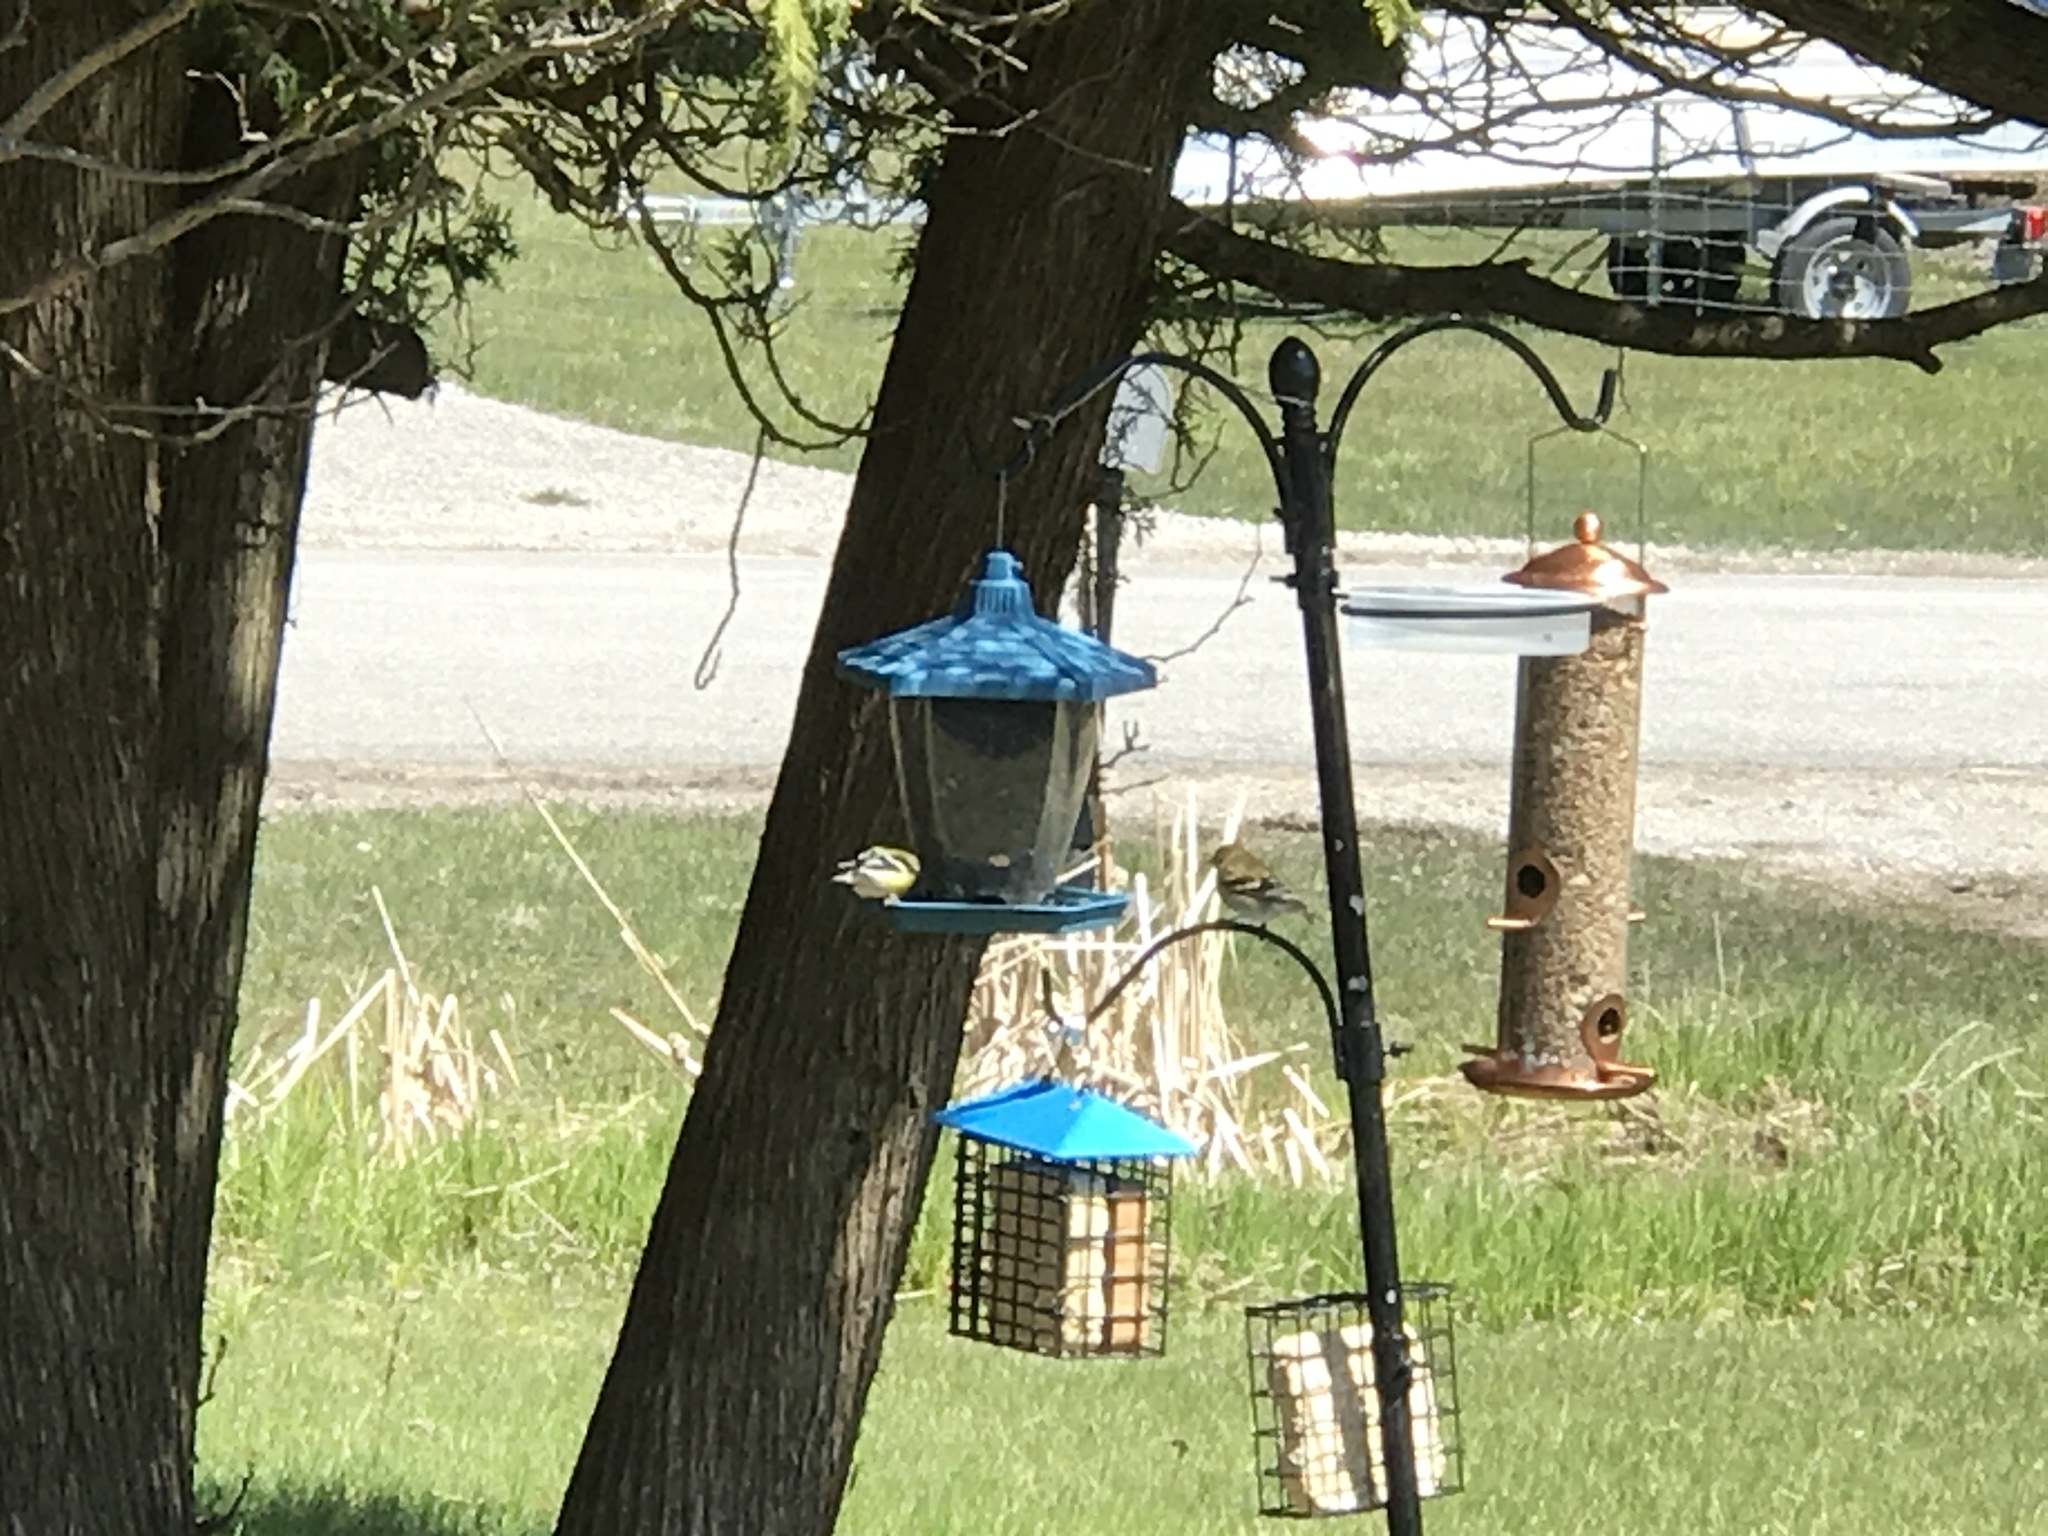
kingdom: Animalia
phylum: Chordata
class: Aves
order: Passeriformes
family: Fringillidae
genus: Spinus
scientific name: Spinus tristis
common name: American goldfinch
